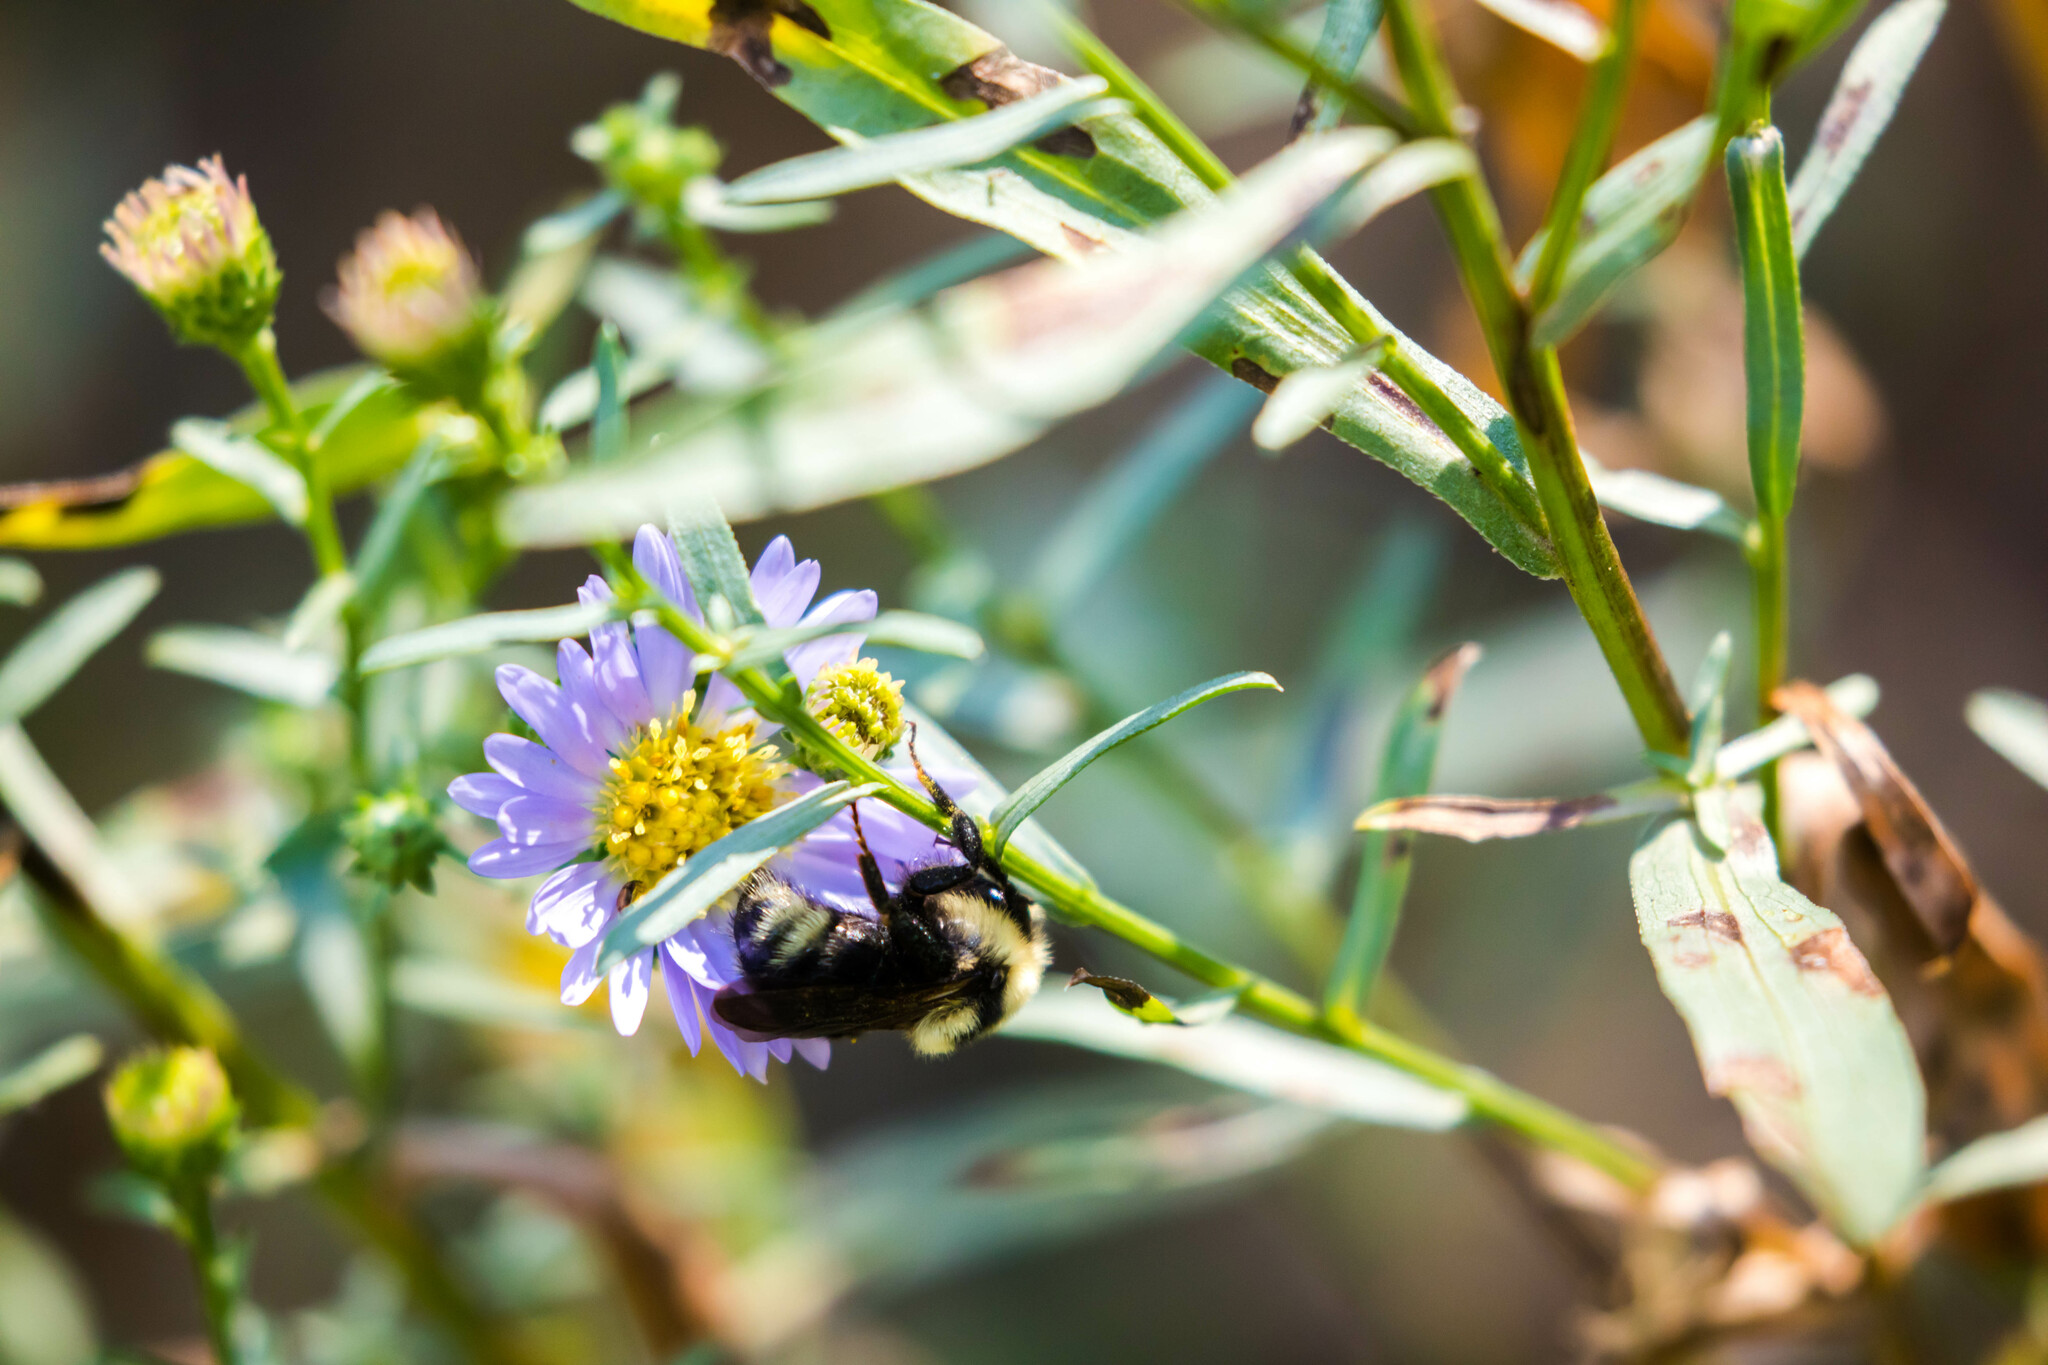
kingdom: Animalia
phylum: Arthropoda
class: Insecta
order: Hymenoptera
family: Apidae
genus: Bombus
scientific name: Bombus insularis
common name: Indiscriminate cuckoo bumble bee
